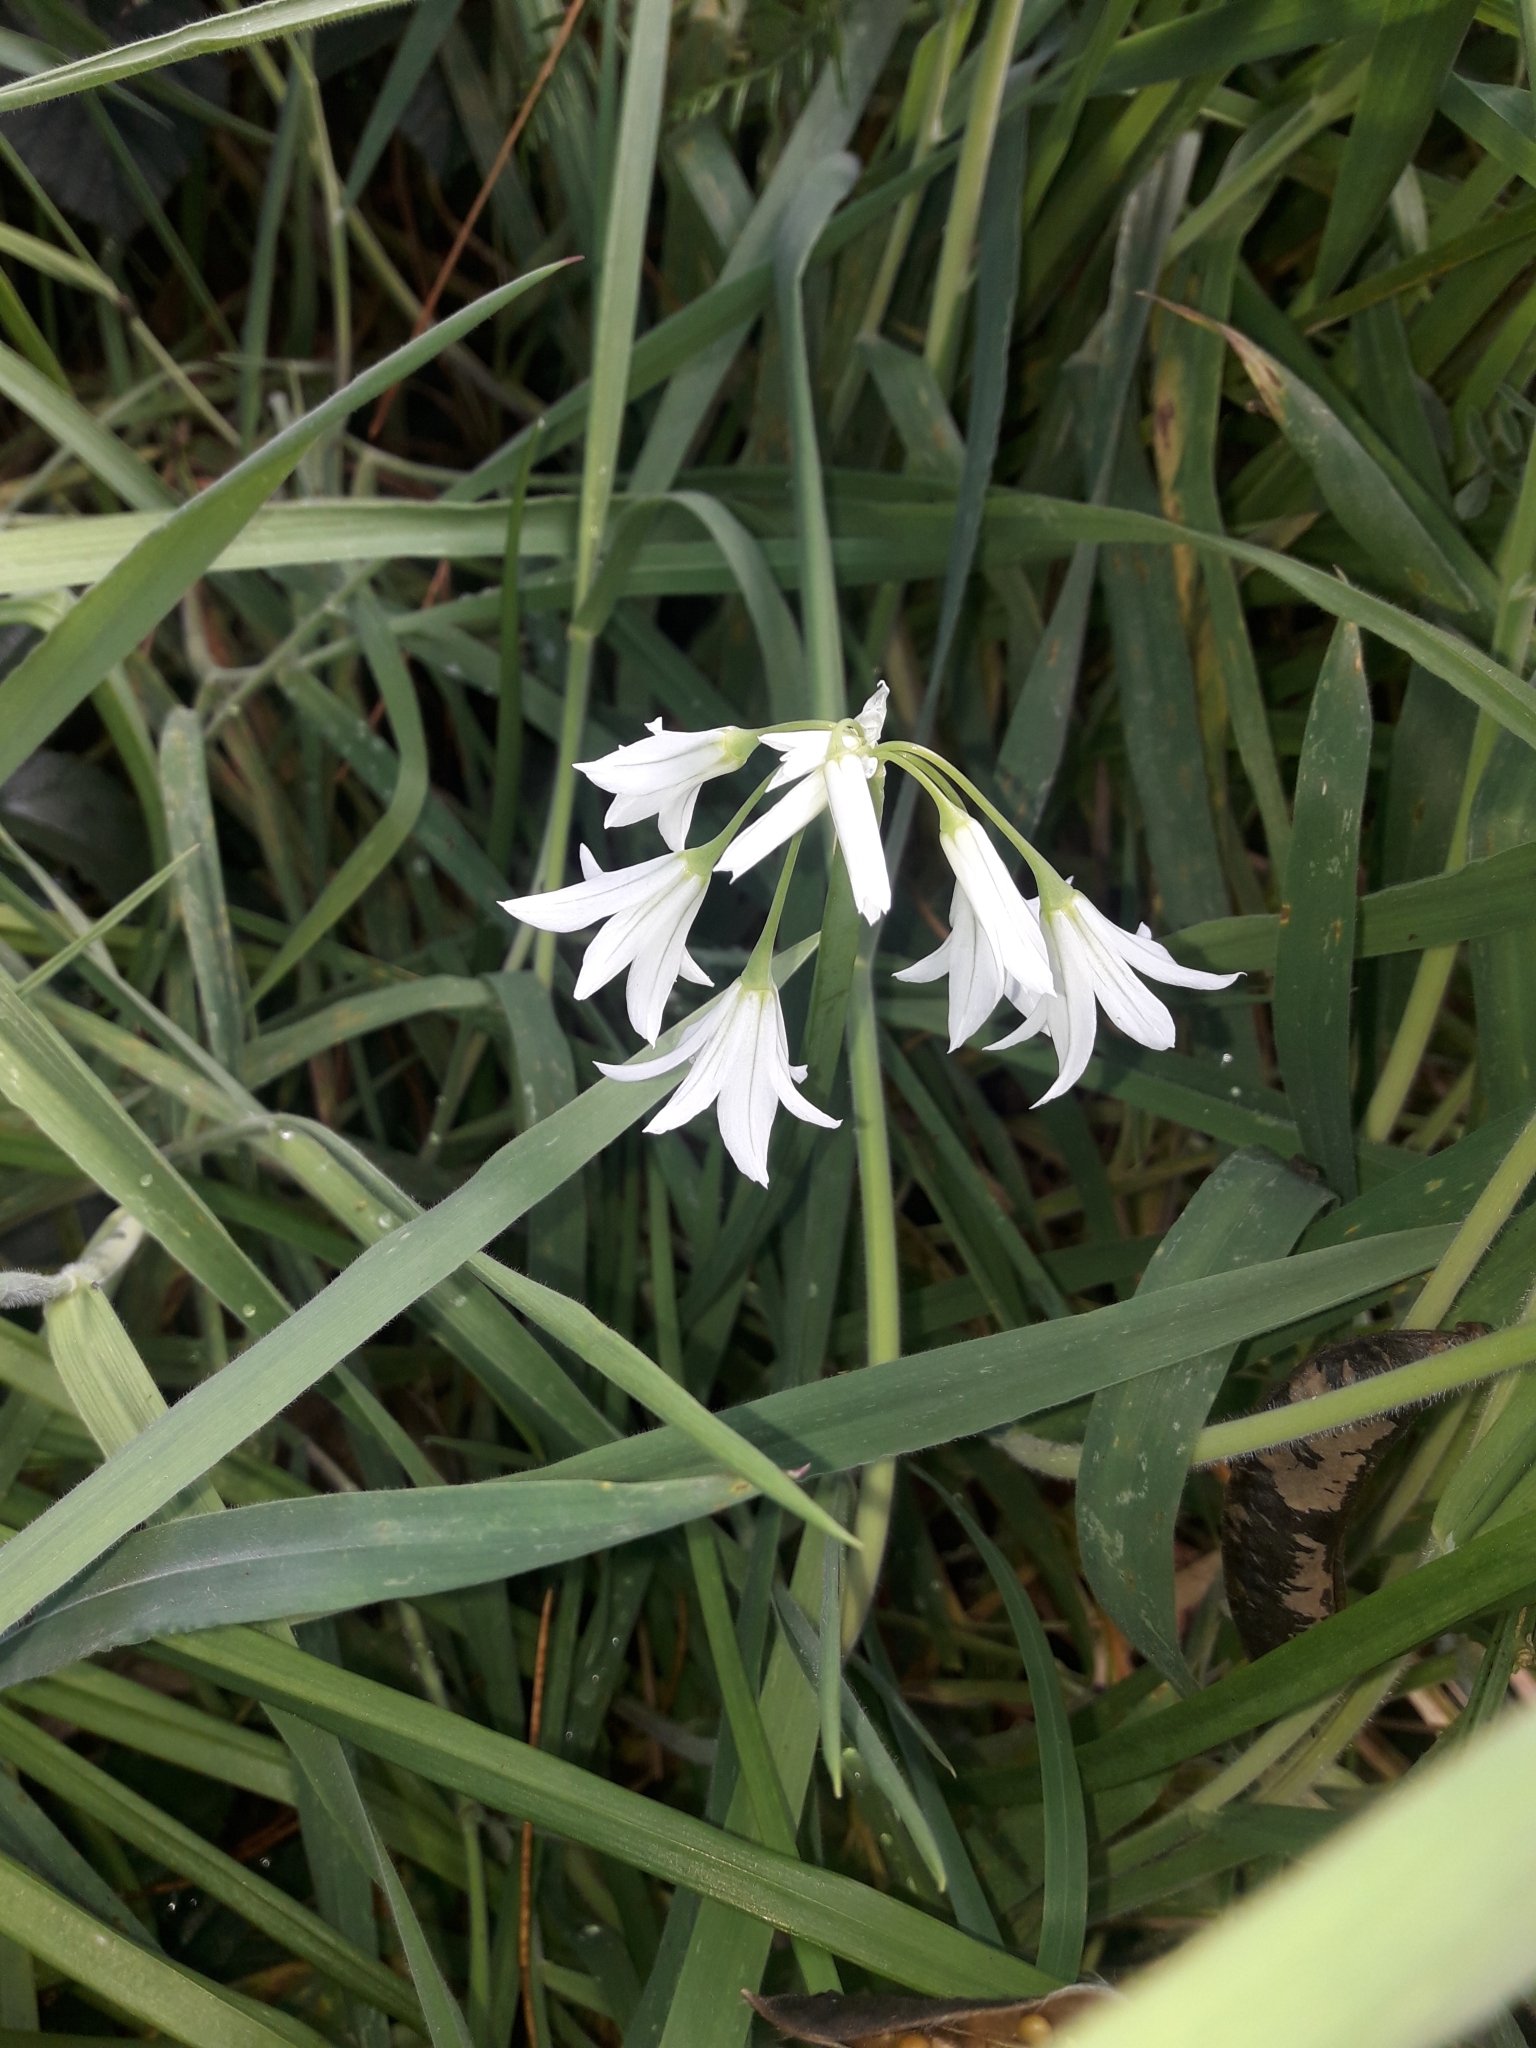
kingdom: Plantae
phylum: Tracheophyta
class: Liliopsida
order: Asparagales
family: Amaryllidaceae
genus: Allium
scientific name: Allium triquetrum
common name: Three-cornered garlic
